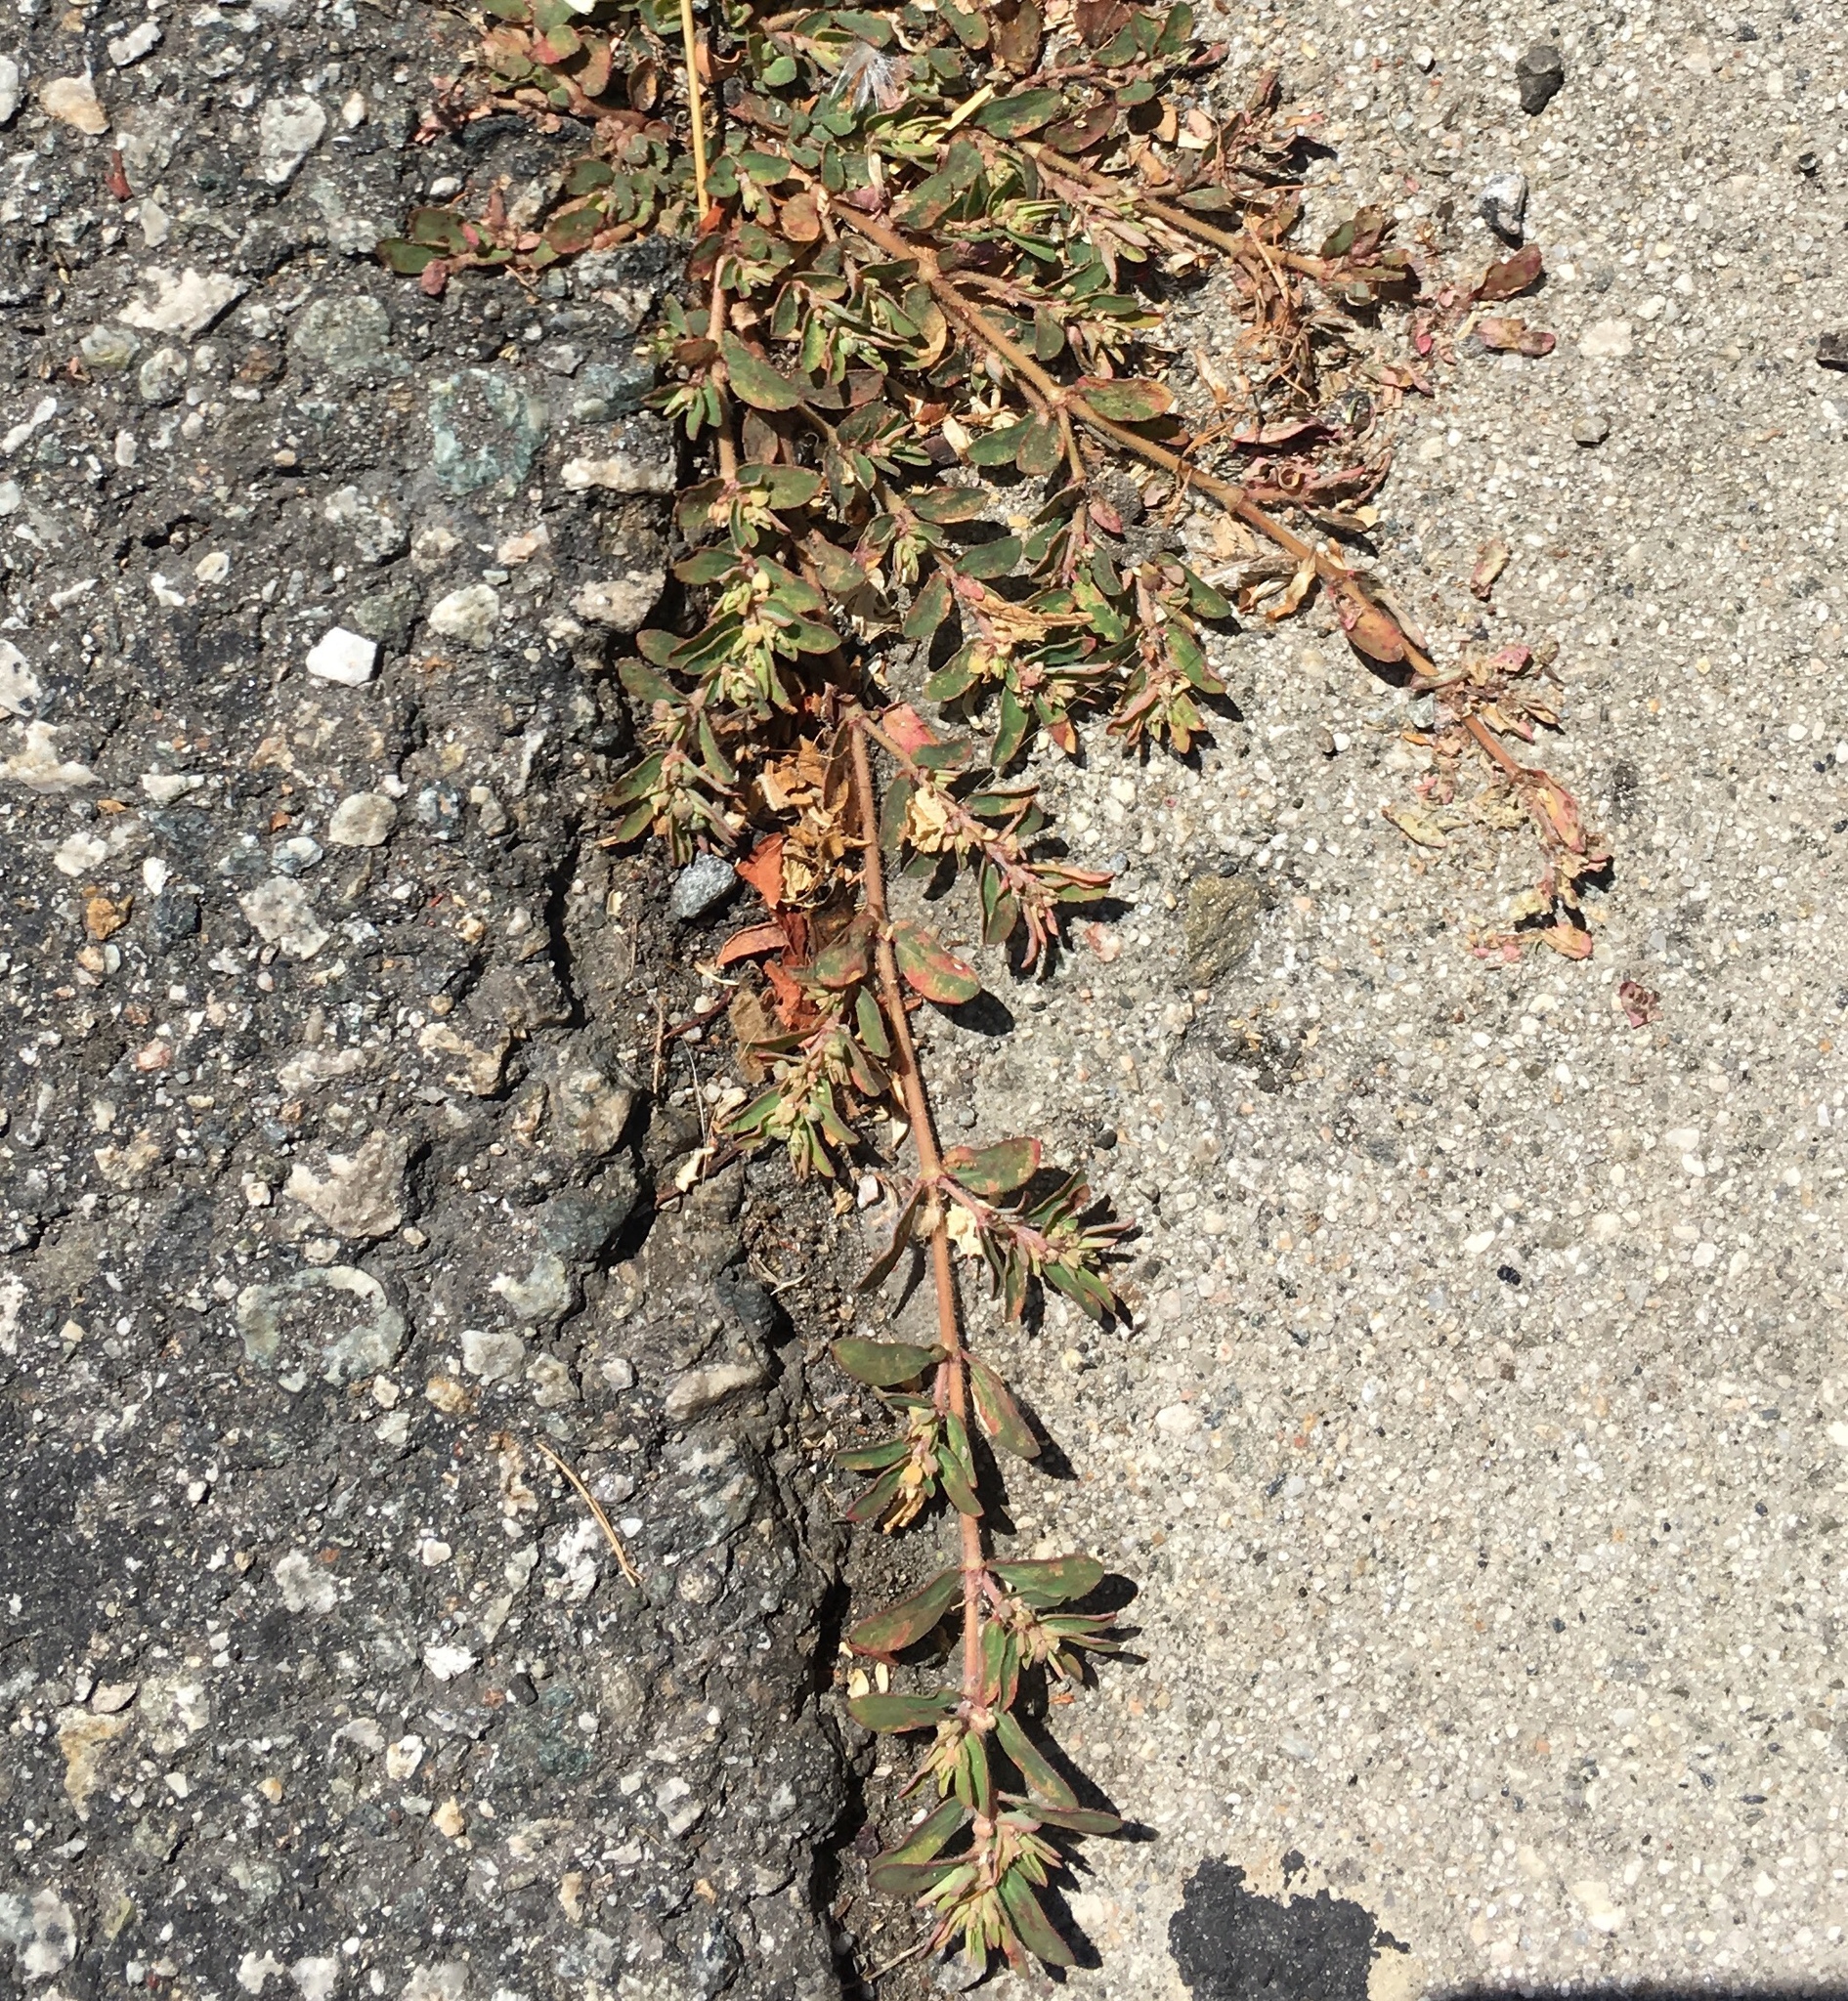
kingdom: Plantae
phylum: Tracheophyta
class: Magnoliopsida
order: Malpighiales
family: Euphorbiaceae
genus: Euphorbia
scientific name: Euphorbia maculata
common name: Spotted spurge
